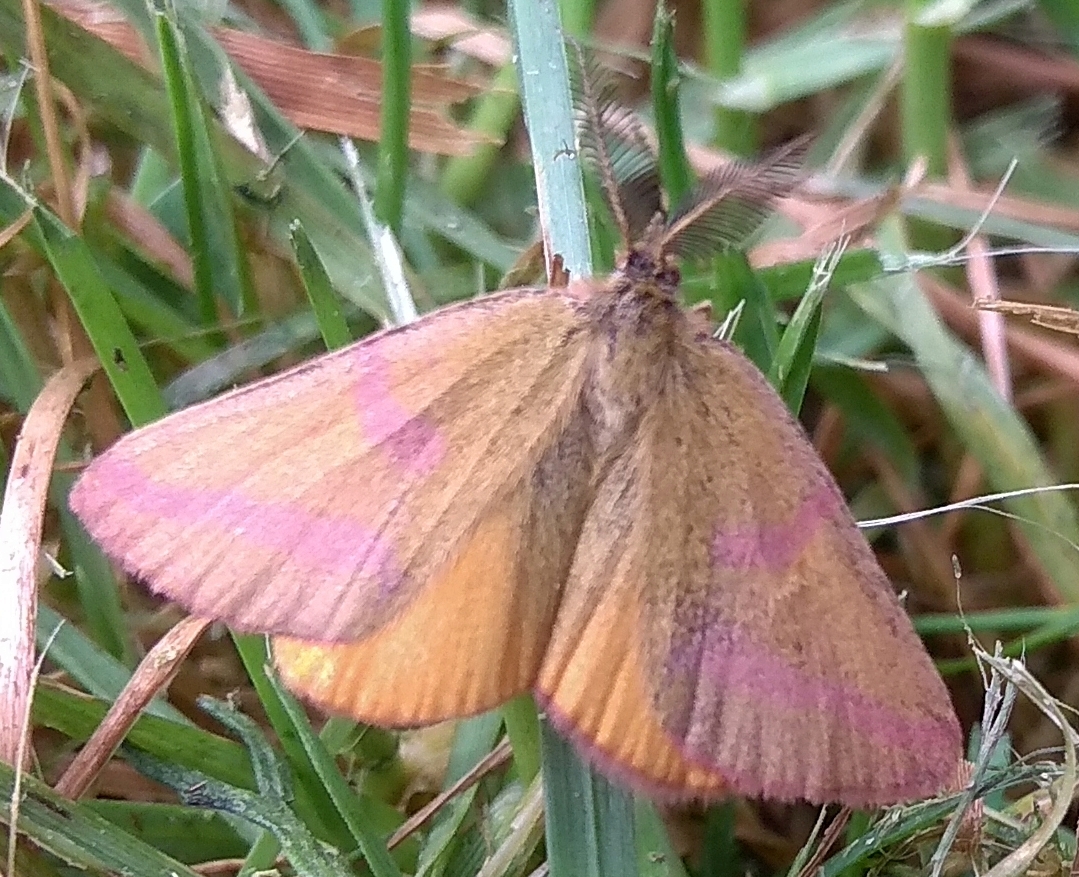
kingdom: Animalia
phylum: Arthropoda
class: Insecta
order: Lepidoptera
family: Geometridae
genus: Lythria
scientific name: Lythria cruentaria
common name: Purple-barred yellow
